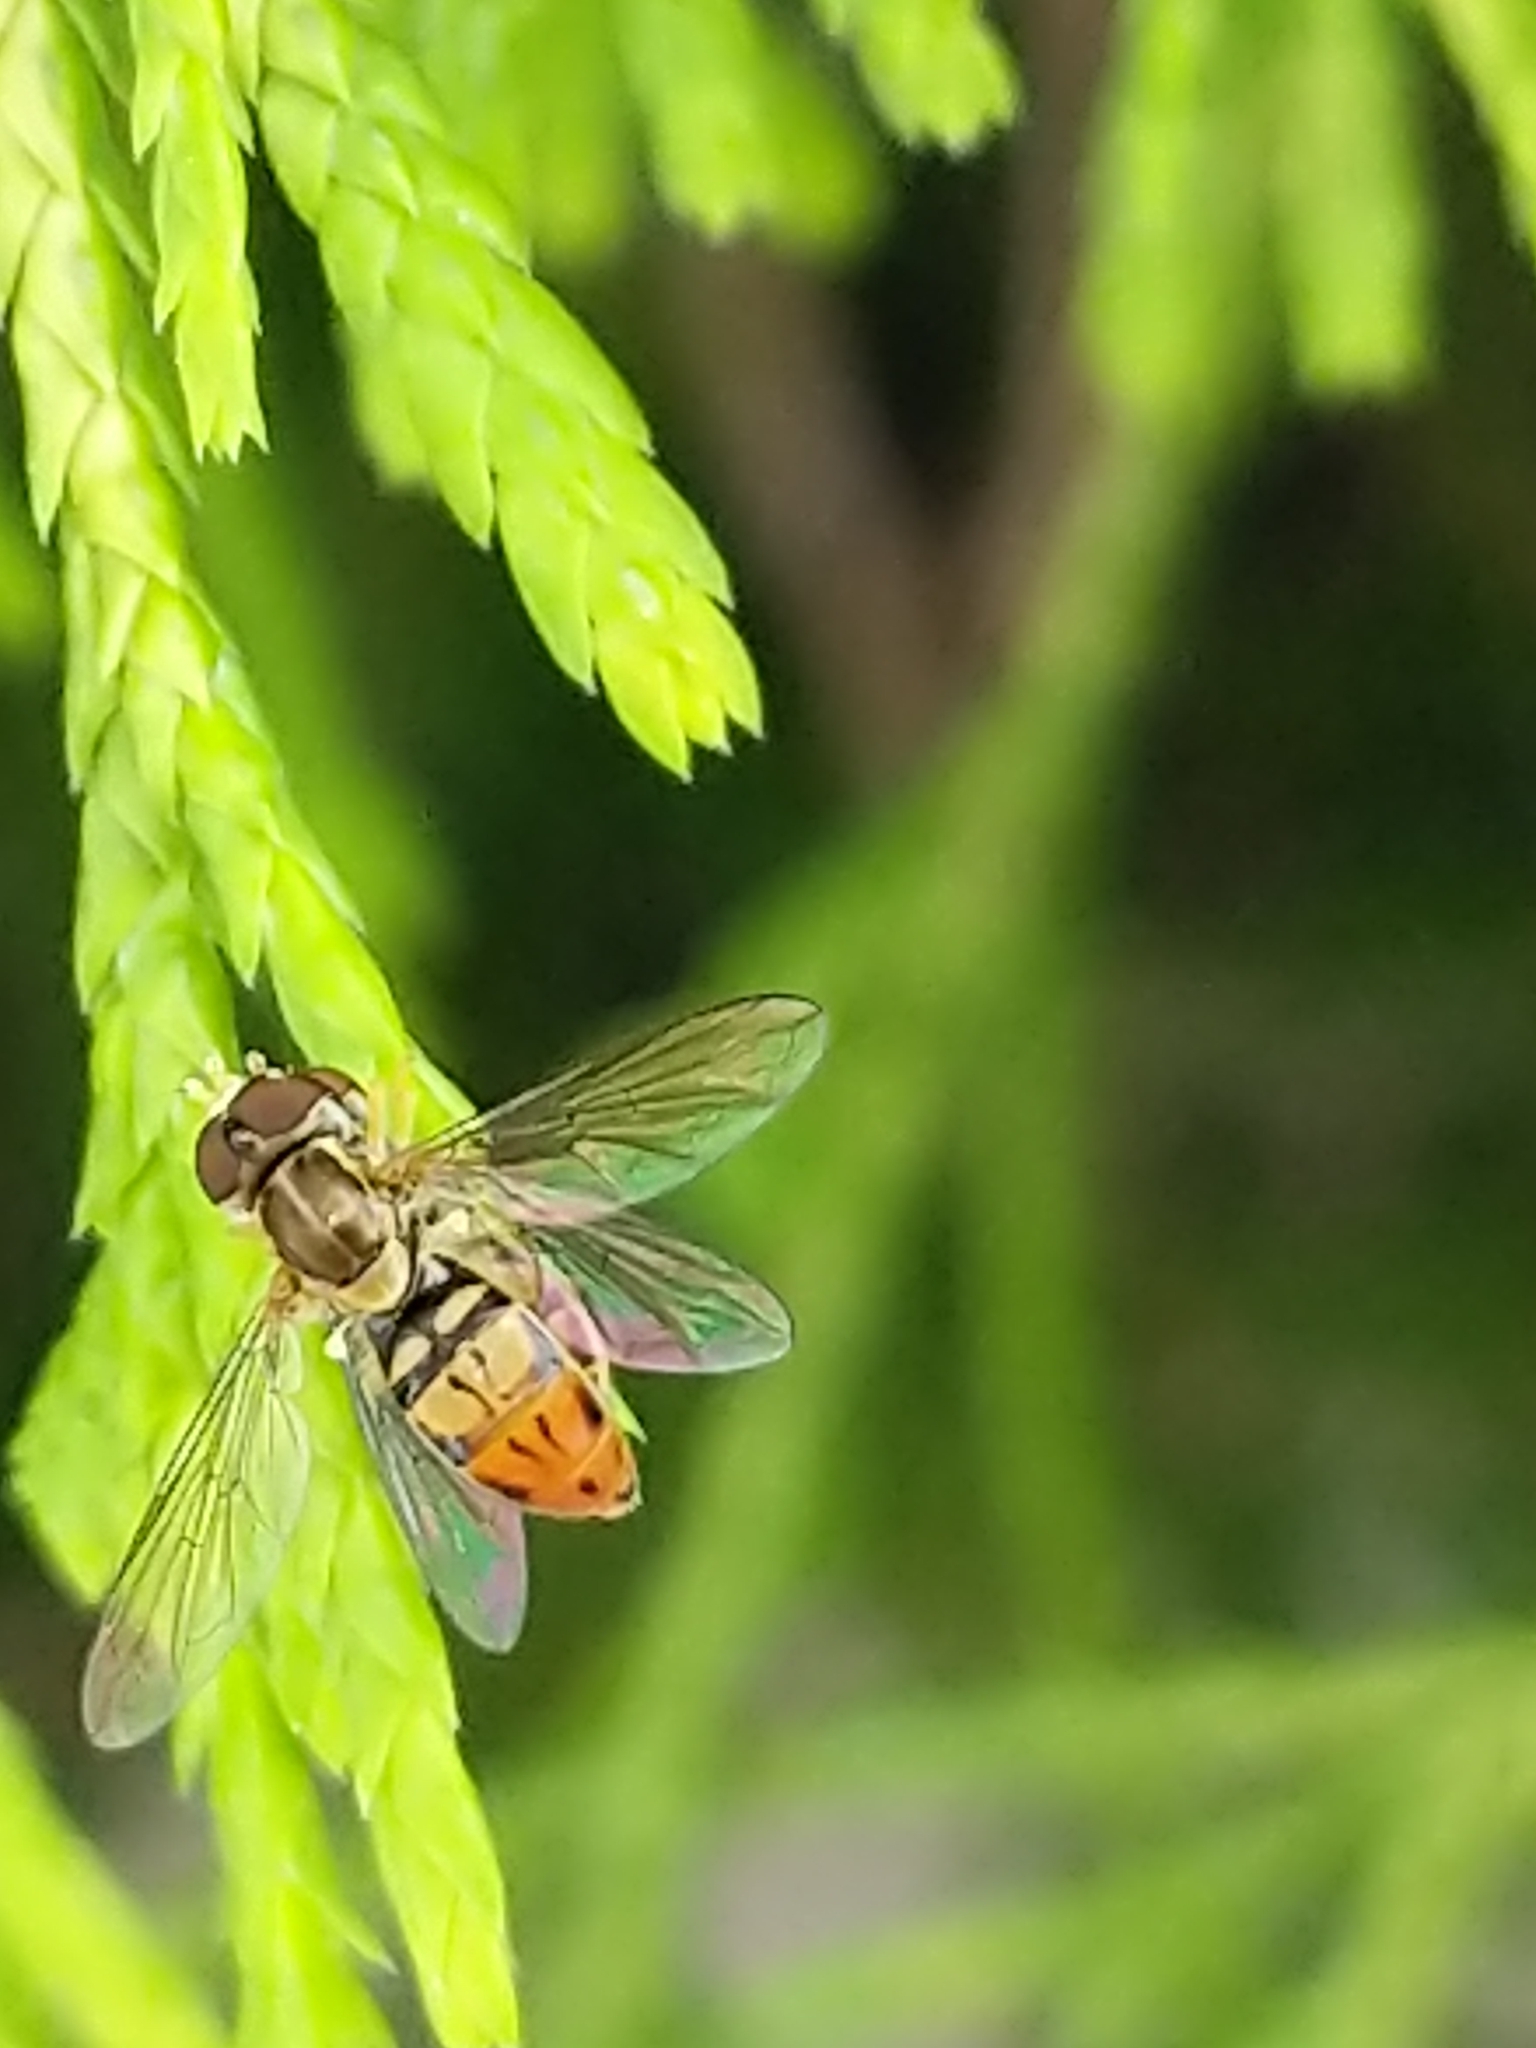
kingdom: Animalia
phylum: Arthropoda
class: Insecta
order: Diptera
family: Syrphidae
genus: Toxomerus
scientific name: Toxomerus marginatus
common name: Syrphid fly
